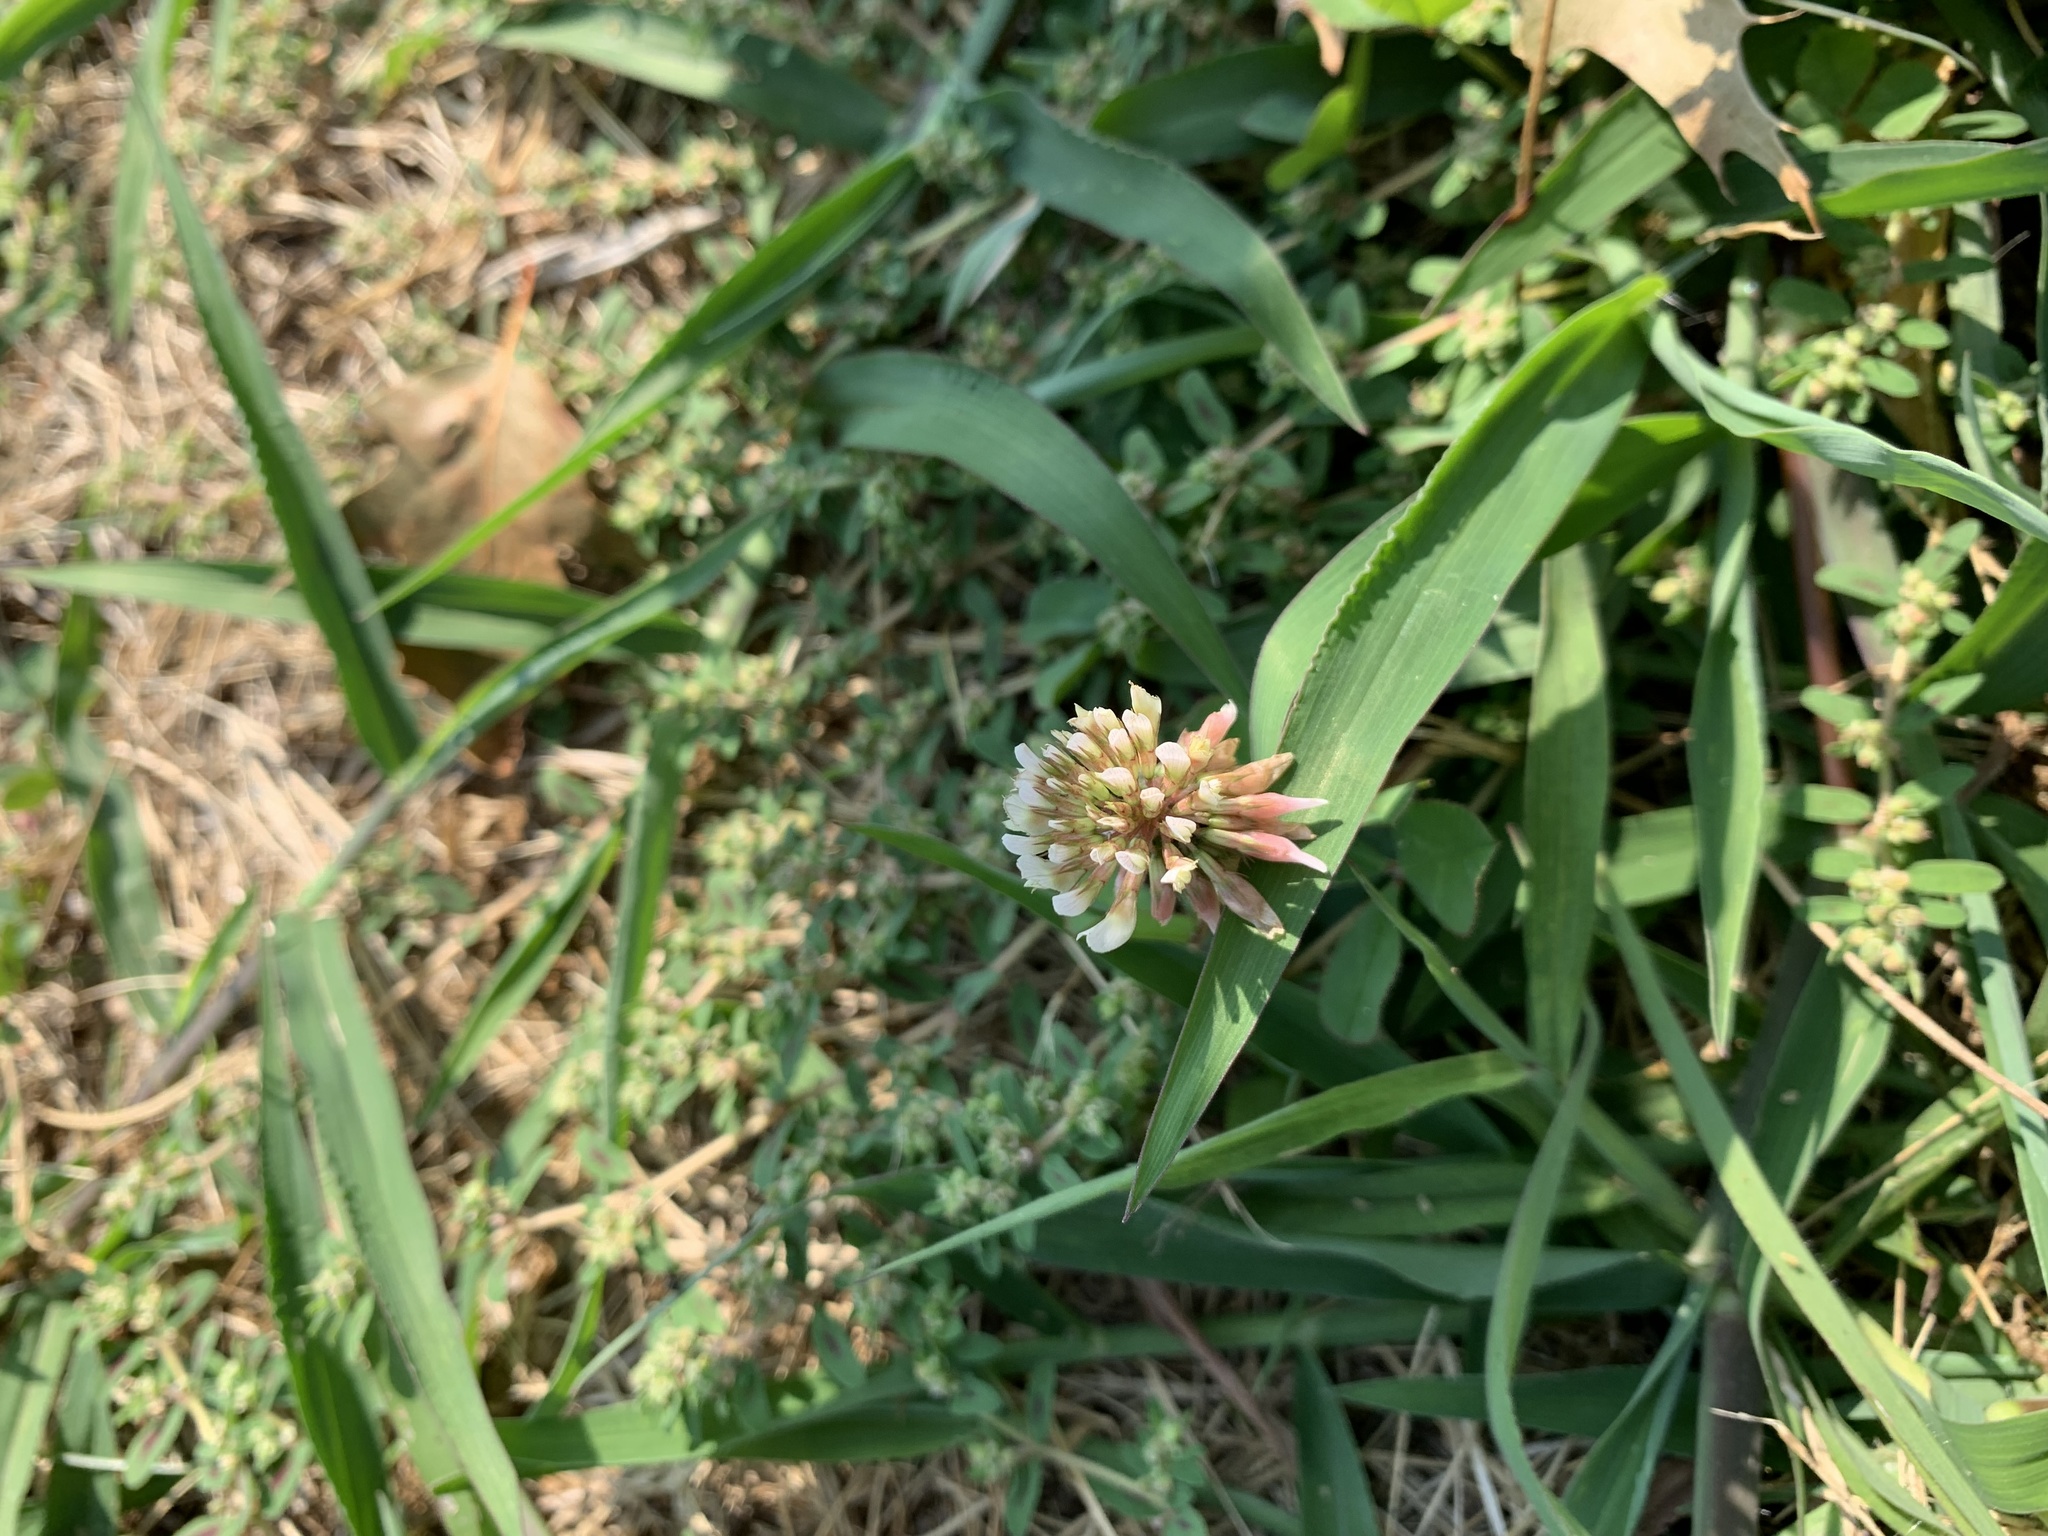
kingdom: Plantae
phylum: Tracheophyta
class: Magnoliopsida
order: Fabales
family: Fabaceae
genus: Trifolium
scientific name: Trifolium repens
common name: White clover
